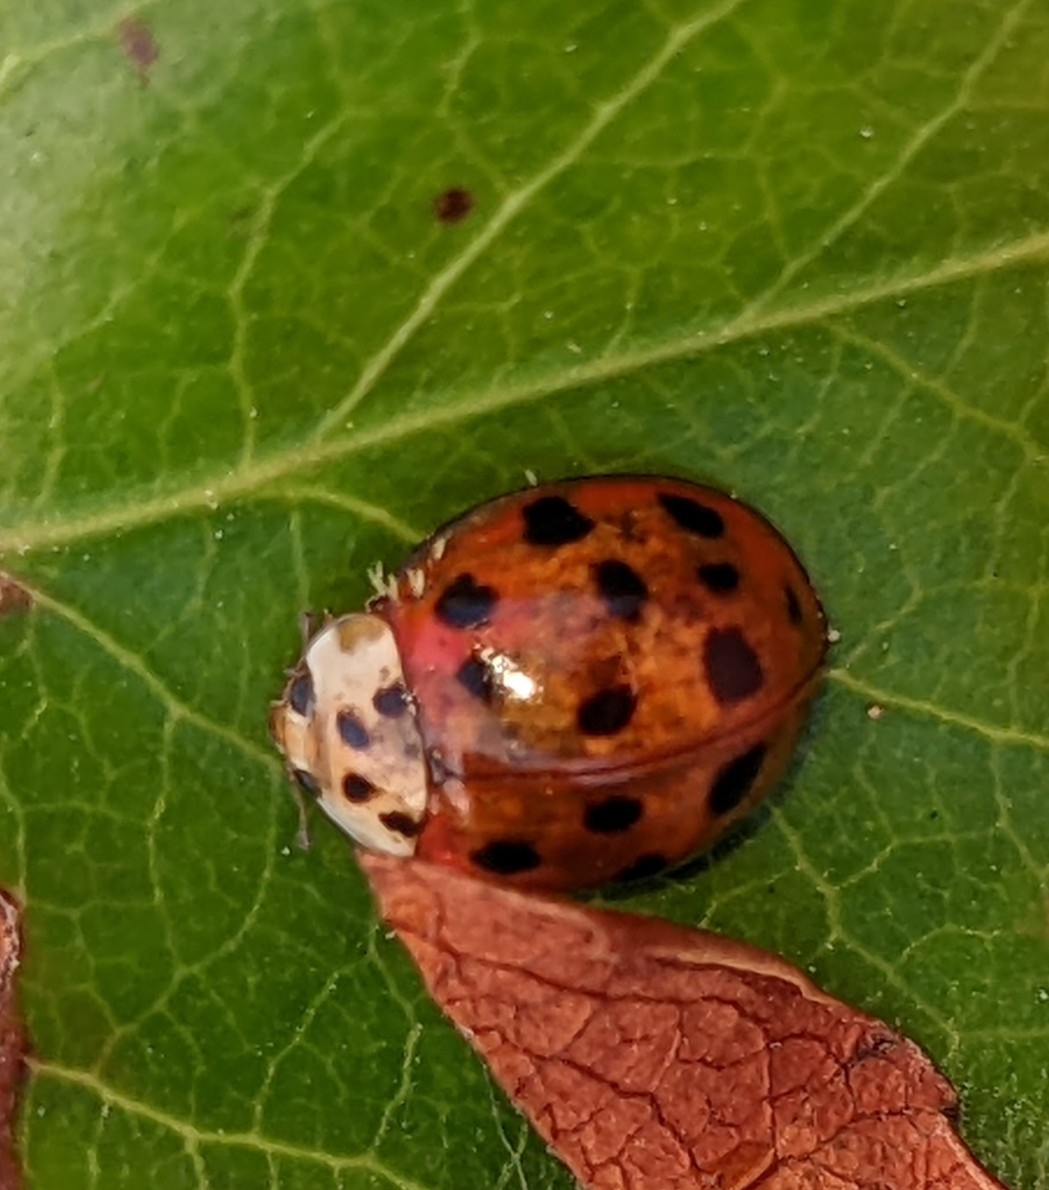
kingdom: Animalia
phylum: Arthropoda
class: Insecta
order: Coleoptera
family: Coccinellidae
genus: Harmonia
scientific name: Harmonia axyridis
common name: Harlequin ladybird
